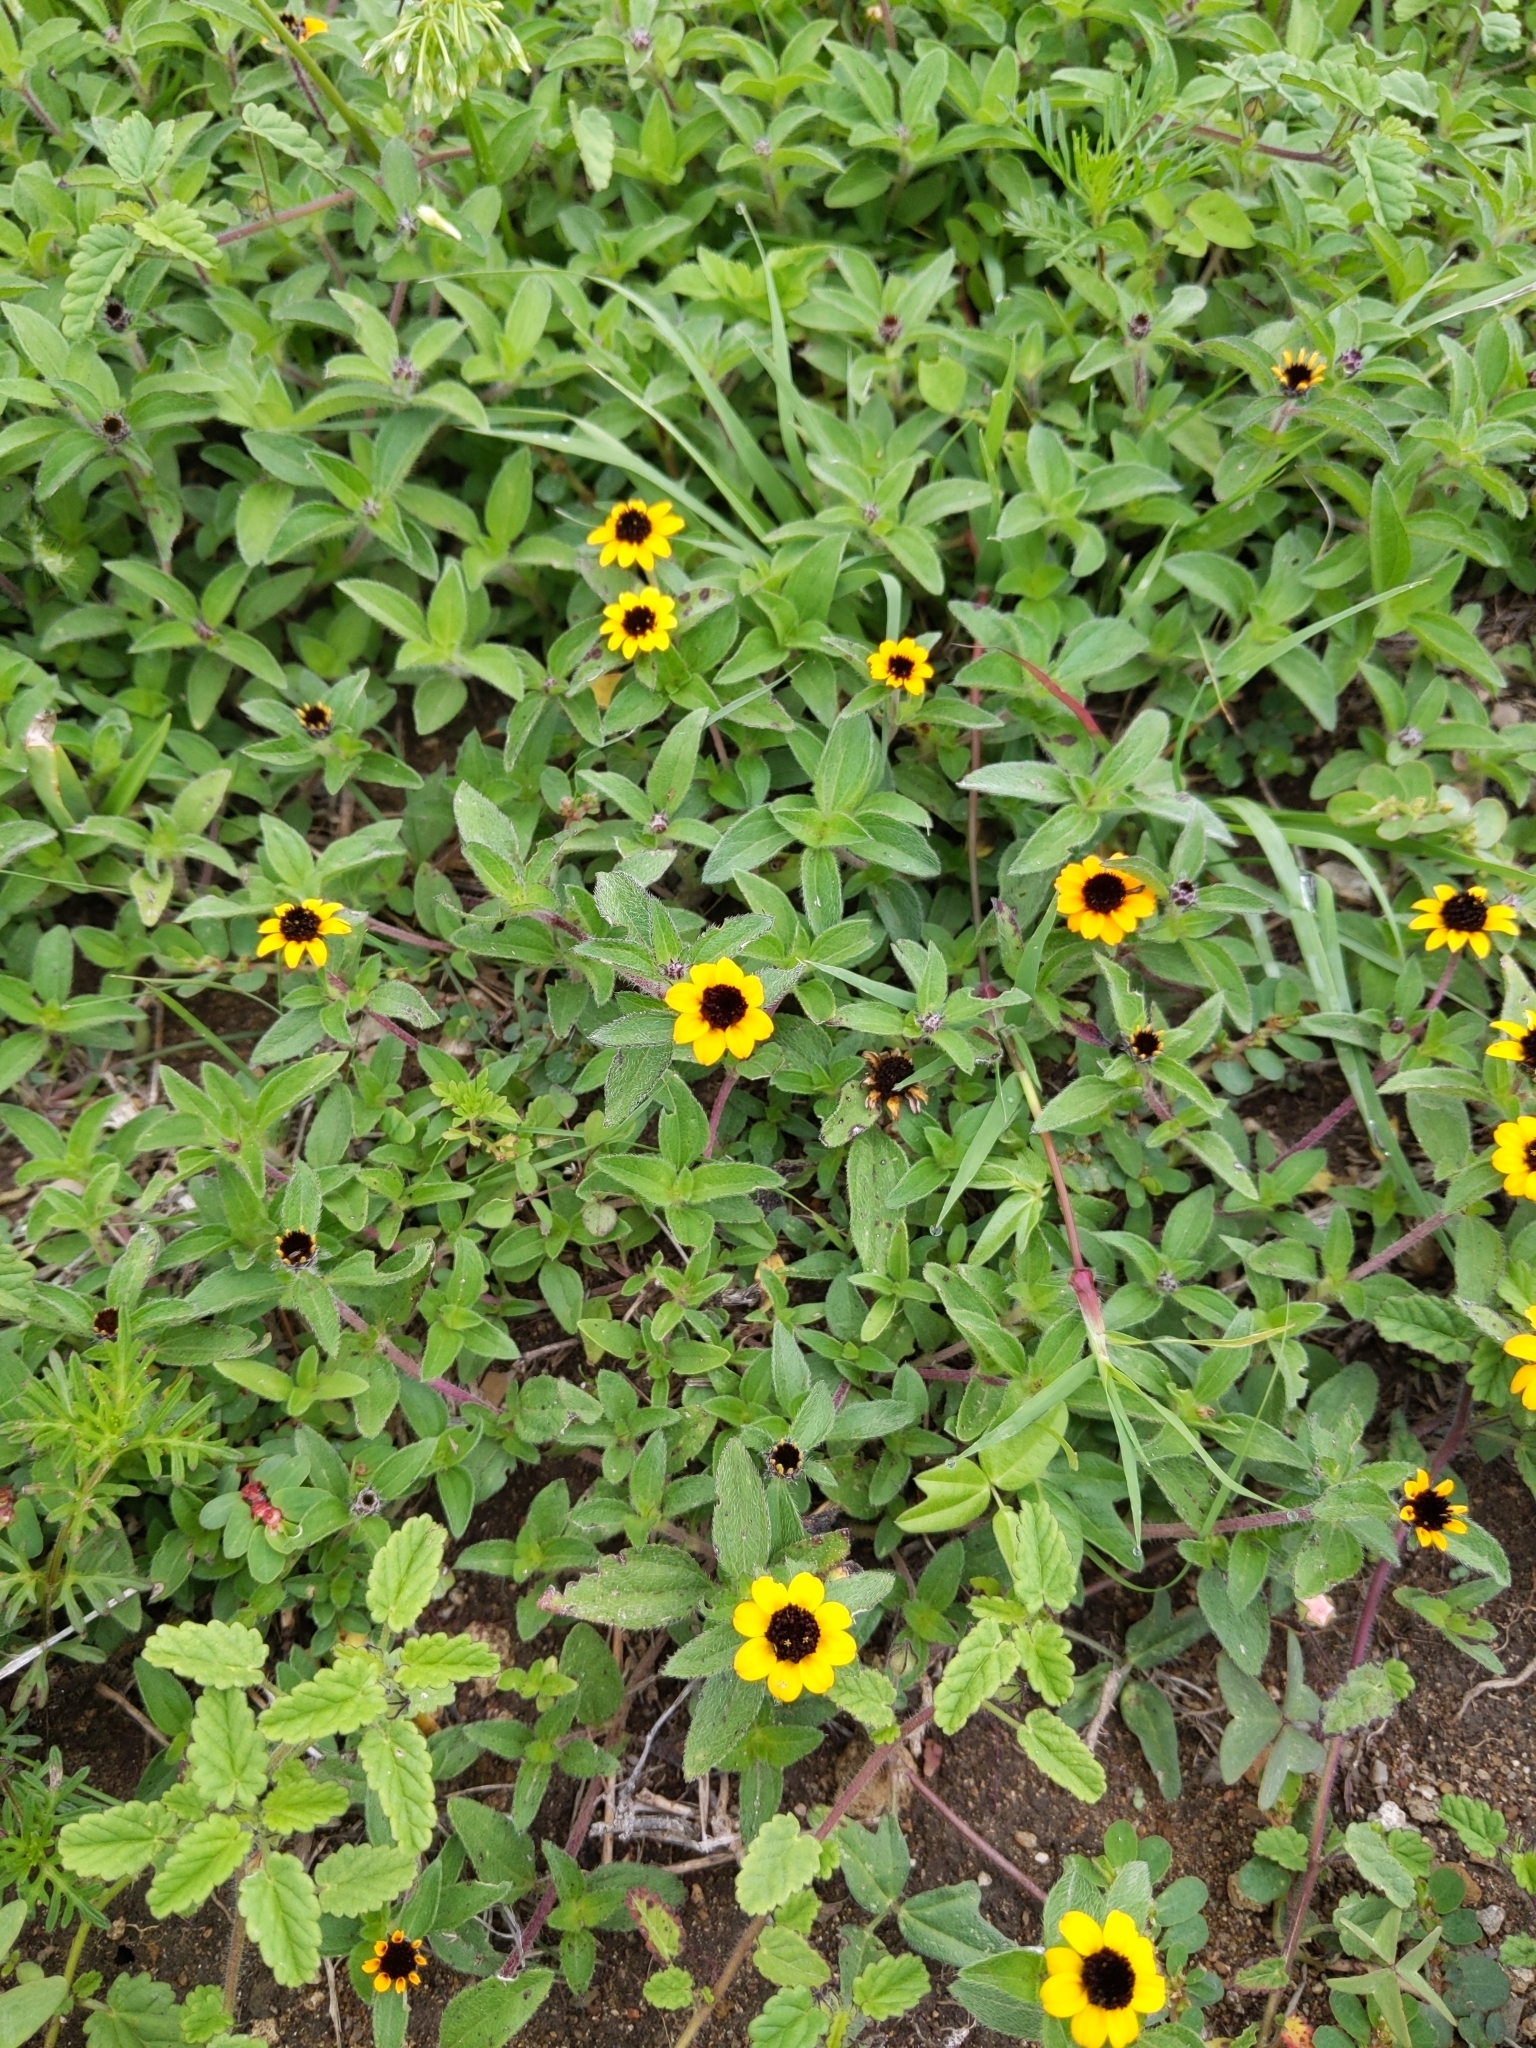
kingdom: Plantae
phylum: Tracheophyta
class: Magnoliopsida
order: Asterales
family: Asteraceae
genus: Sanvitalia
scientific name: Sanvitalia procumbens
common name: Mexican creeping zinnia
